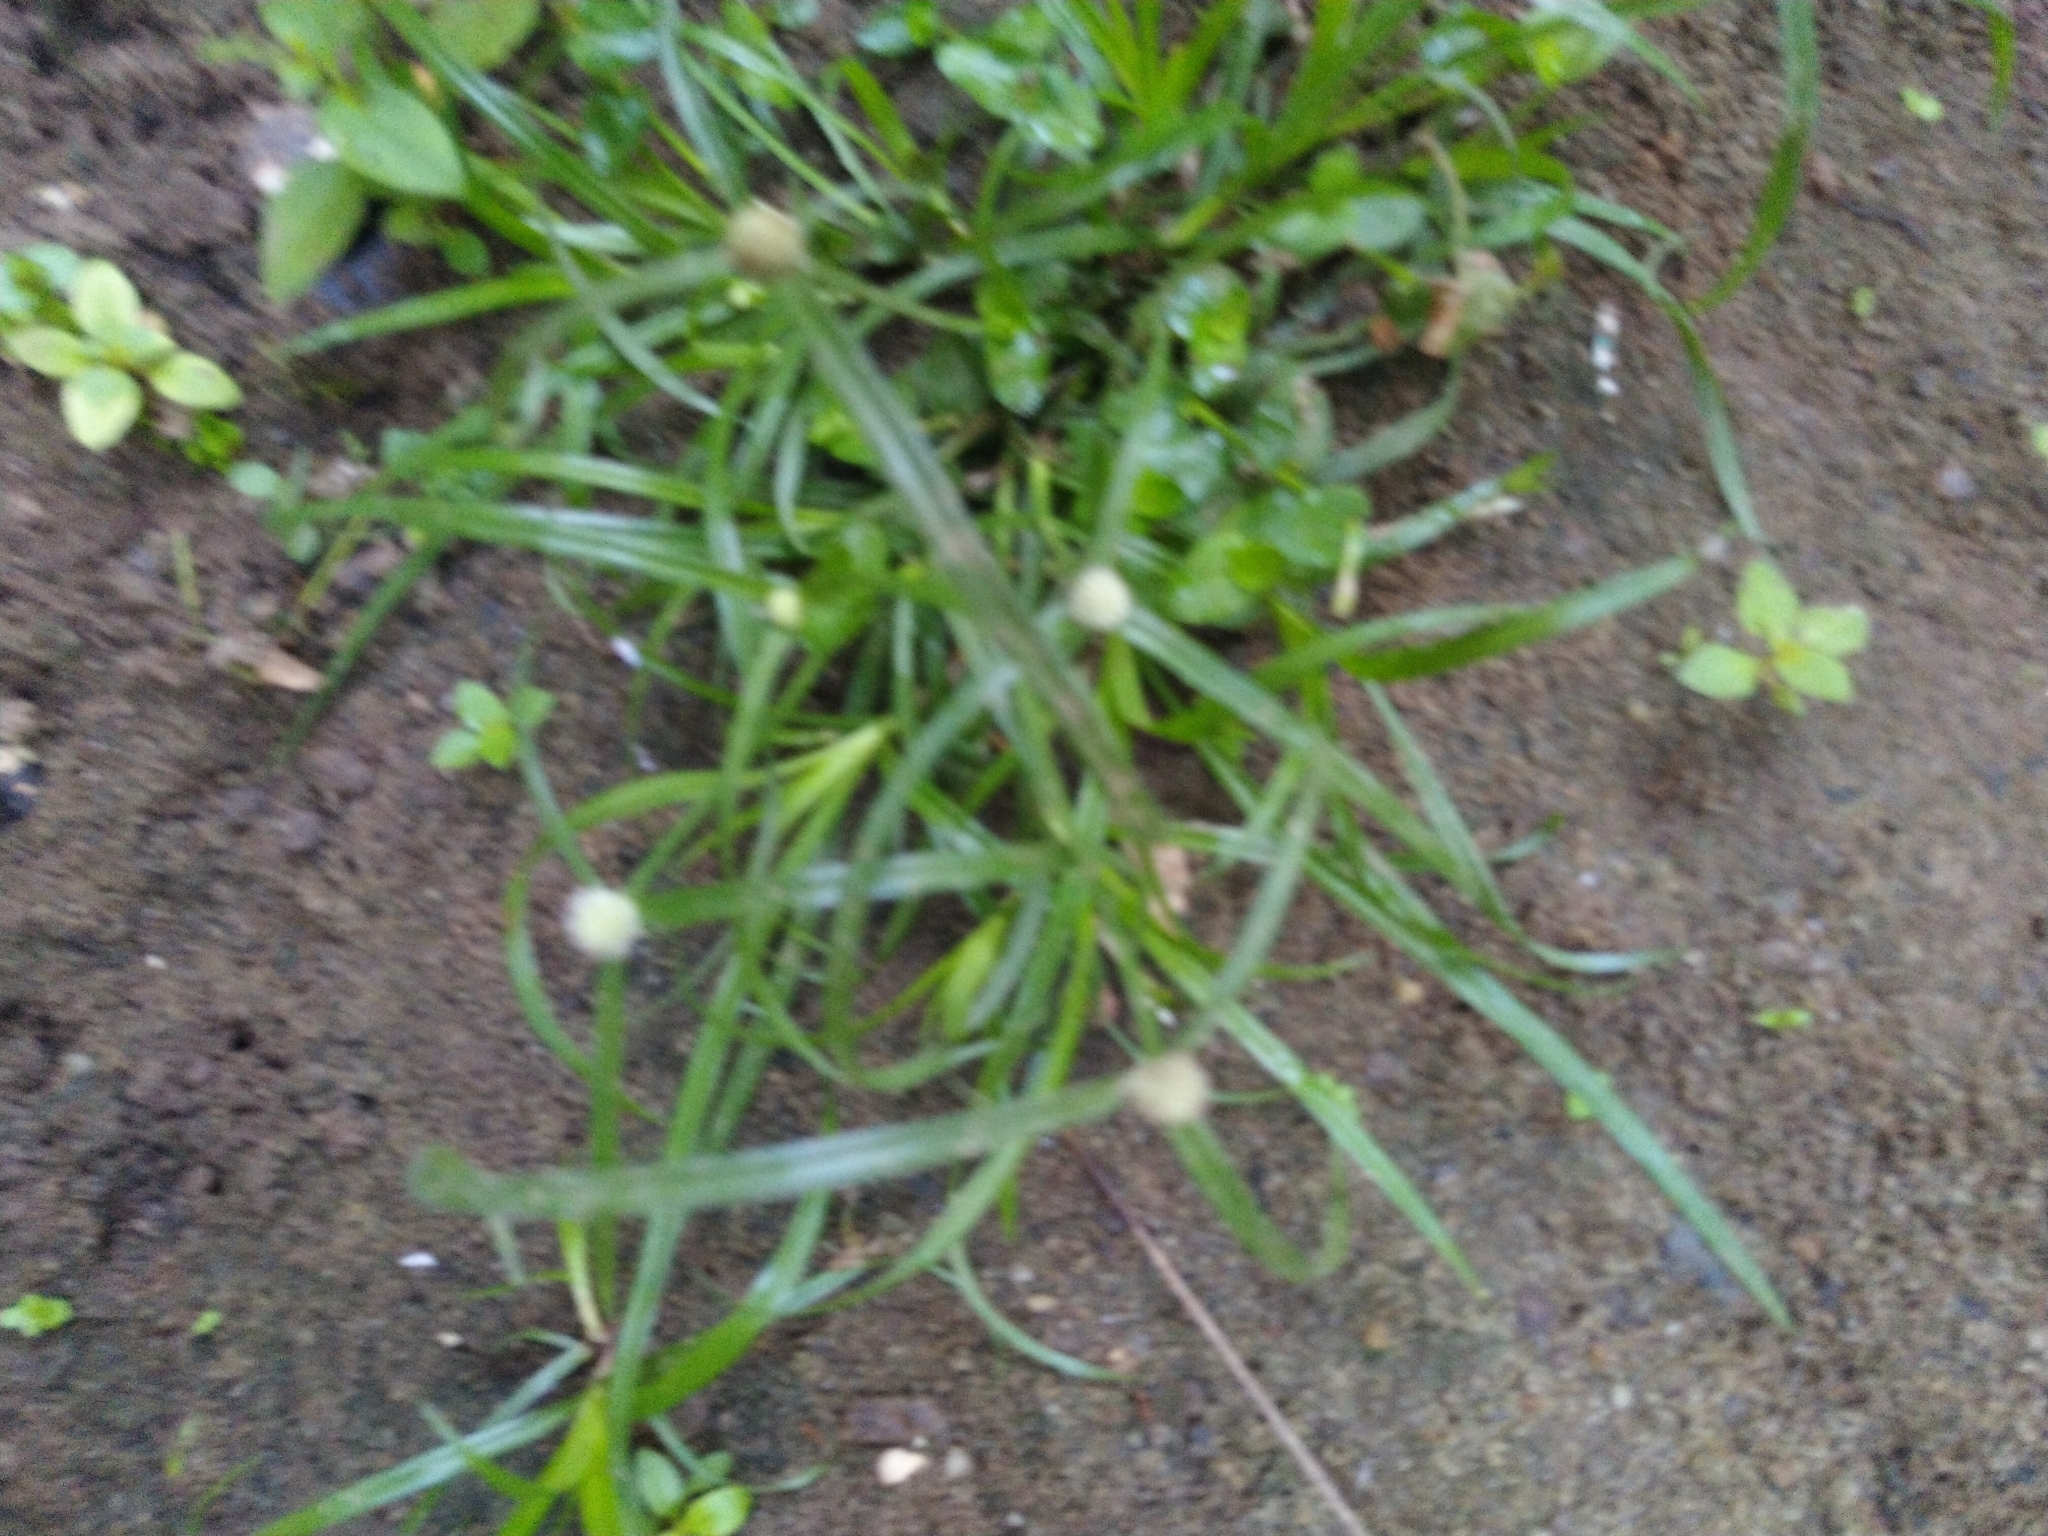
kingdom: Plantae
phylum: Tracheophyta
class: Liliopsida
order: Poales
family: Cyperaceae
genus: Cyperus
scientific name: Cyperus mindorensis
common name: Flatsedge
